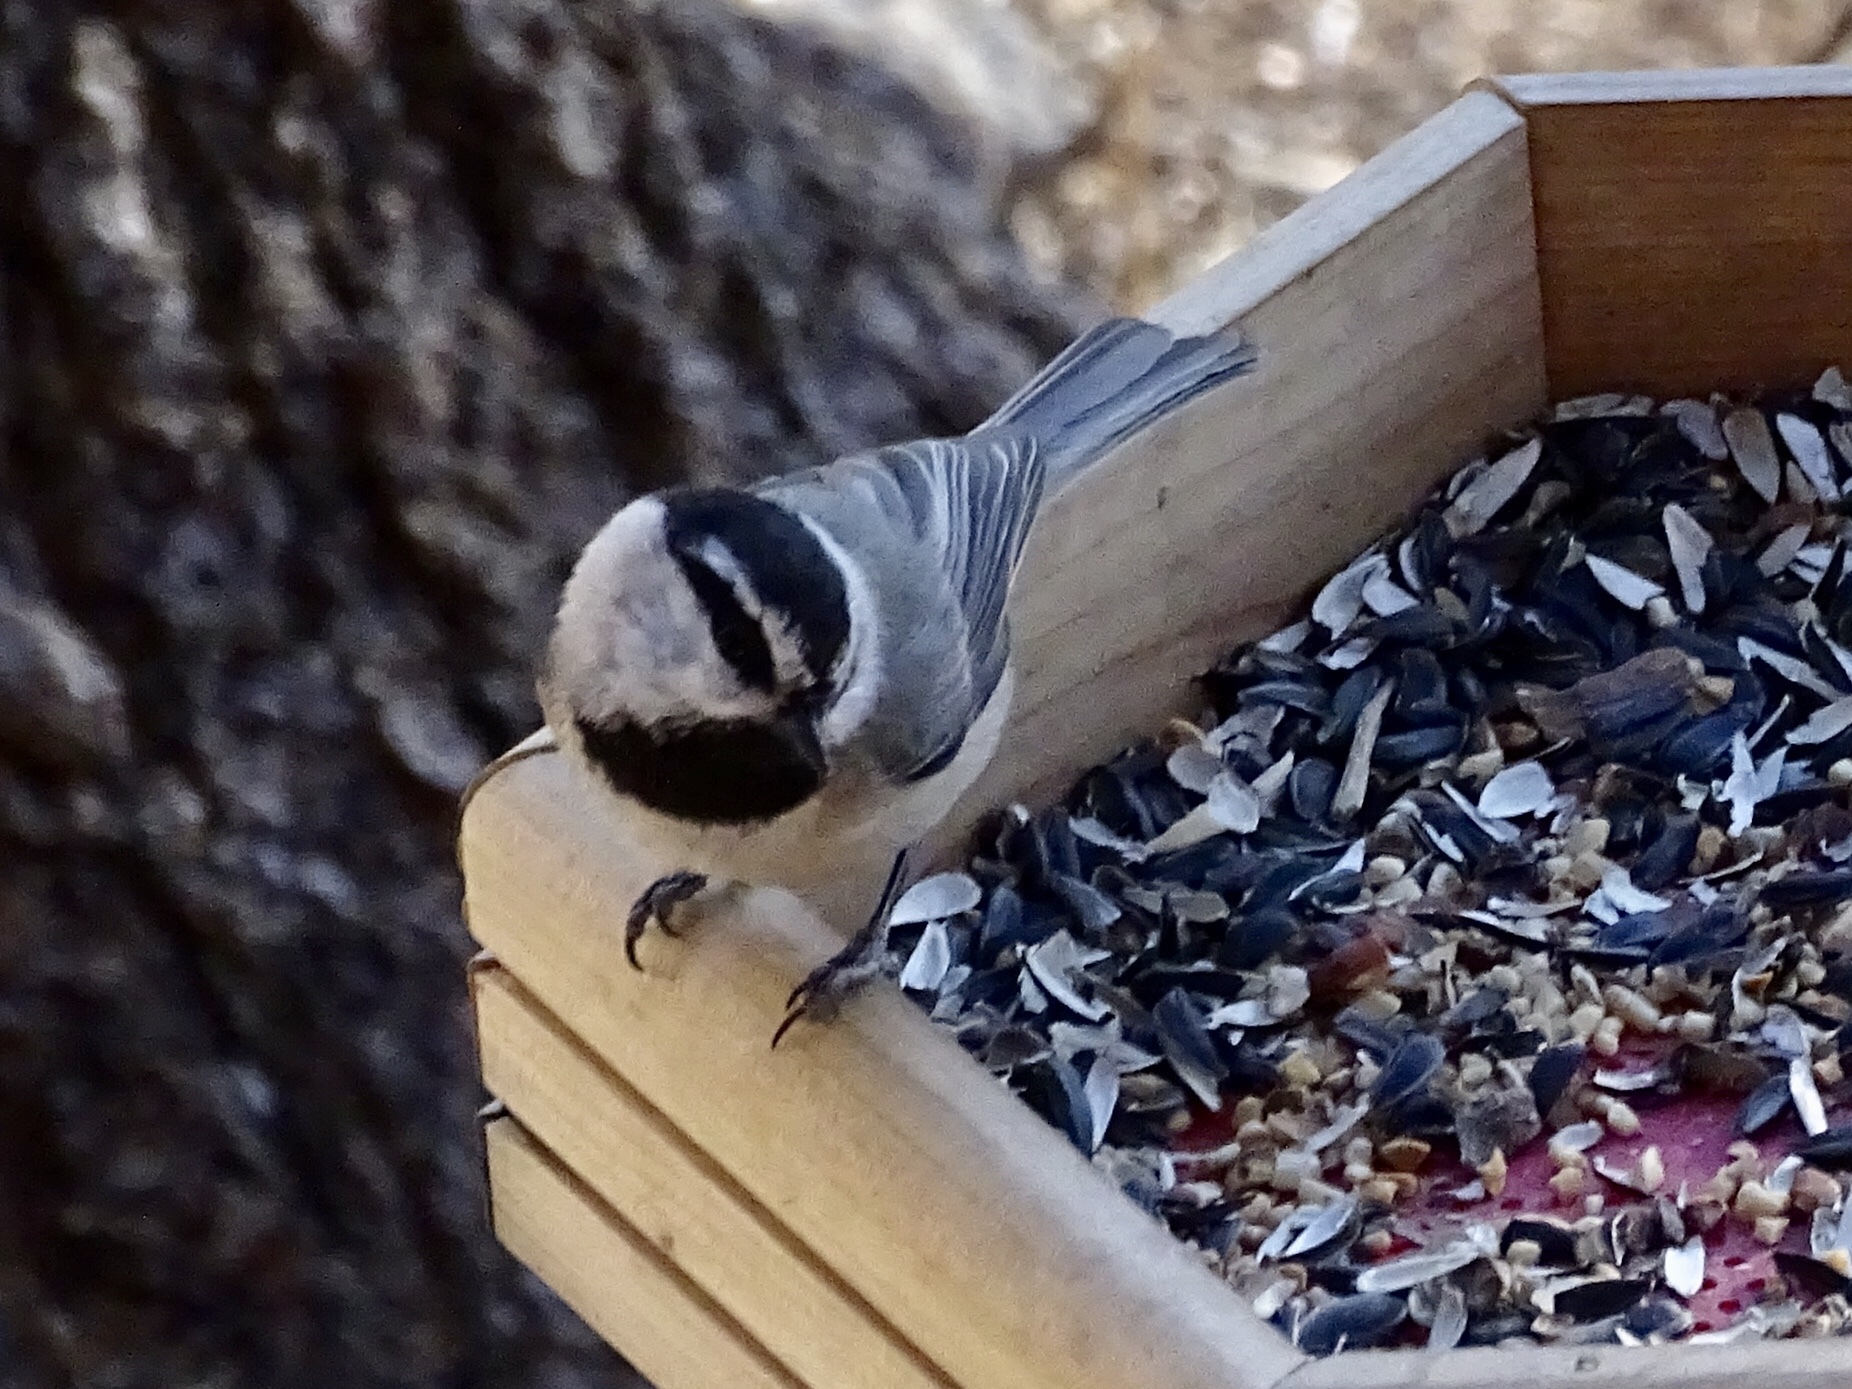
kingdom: Animalia
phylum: Chordata
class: Aves
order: Passeriformes
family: Paridae
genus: Poecile
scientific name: Poecile gambeli
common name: Mountain chickadee
